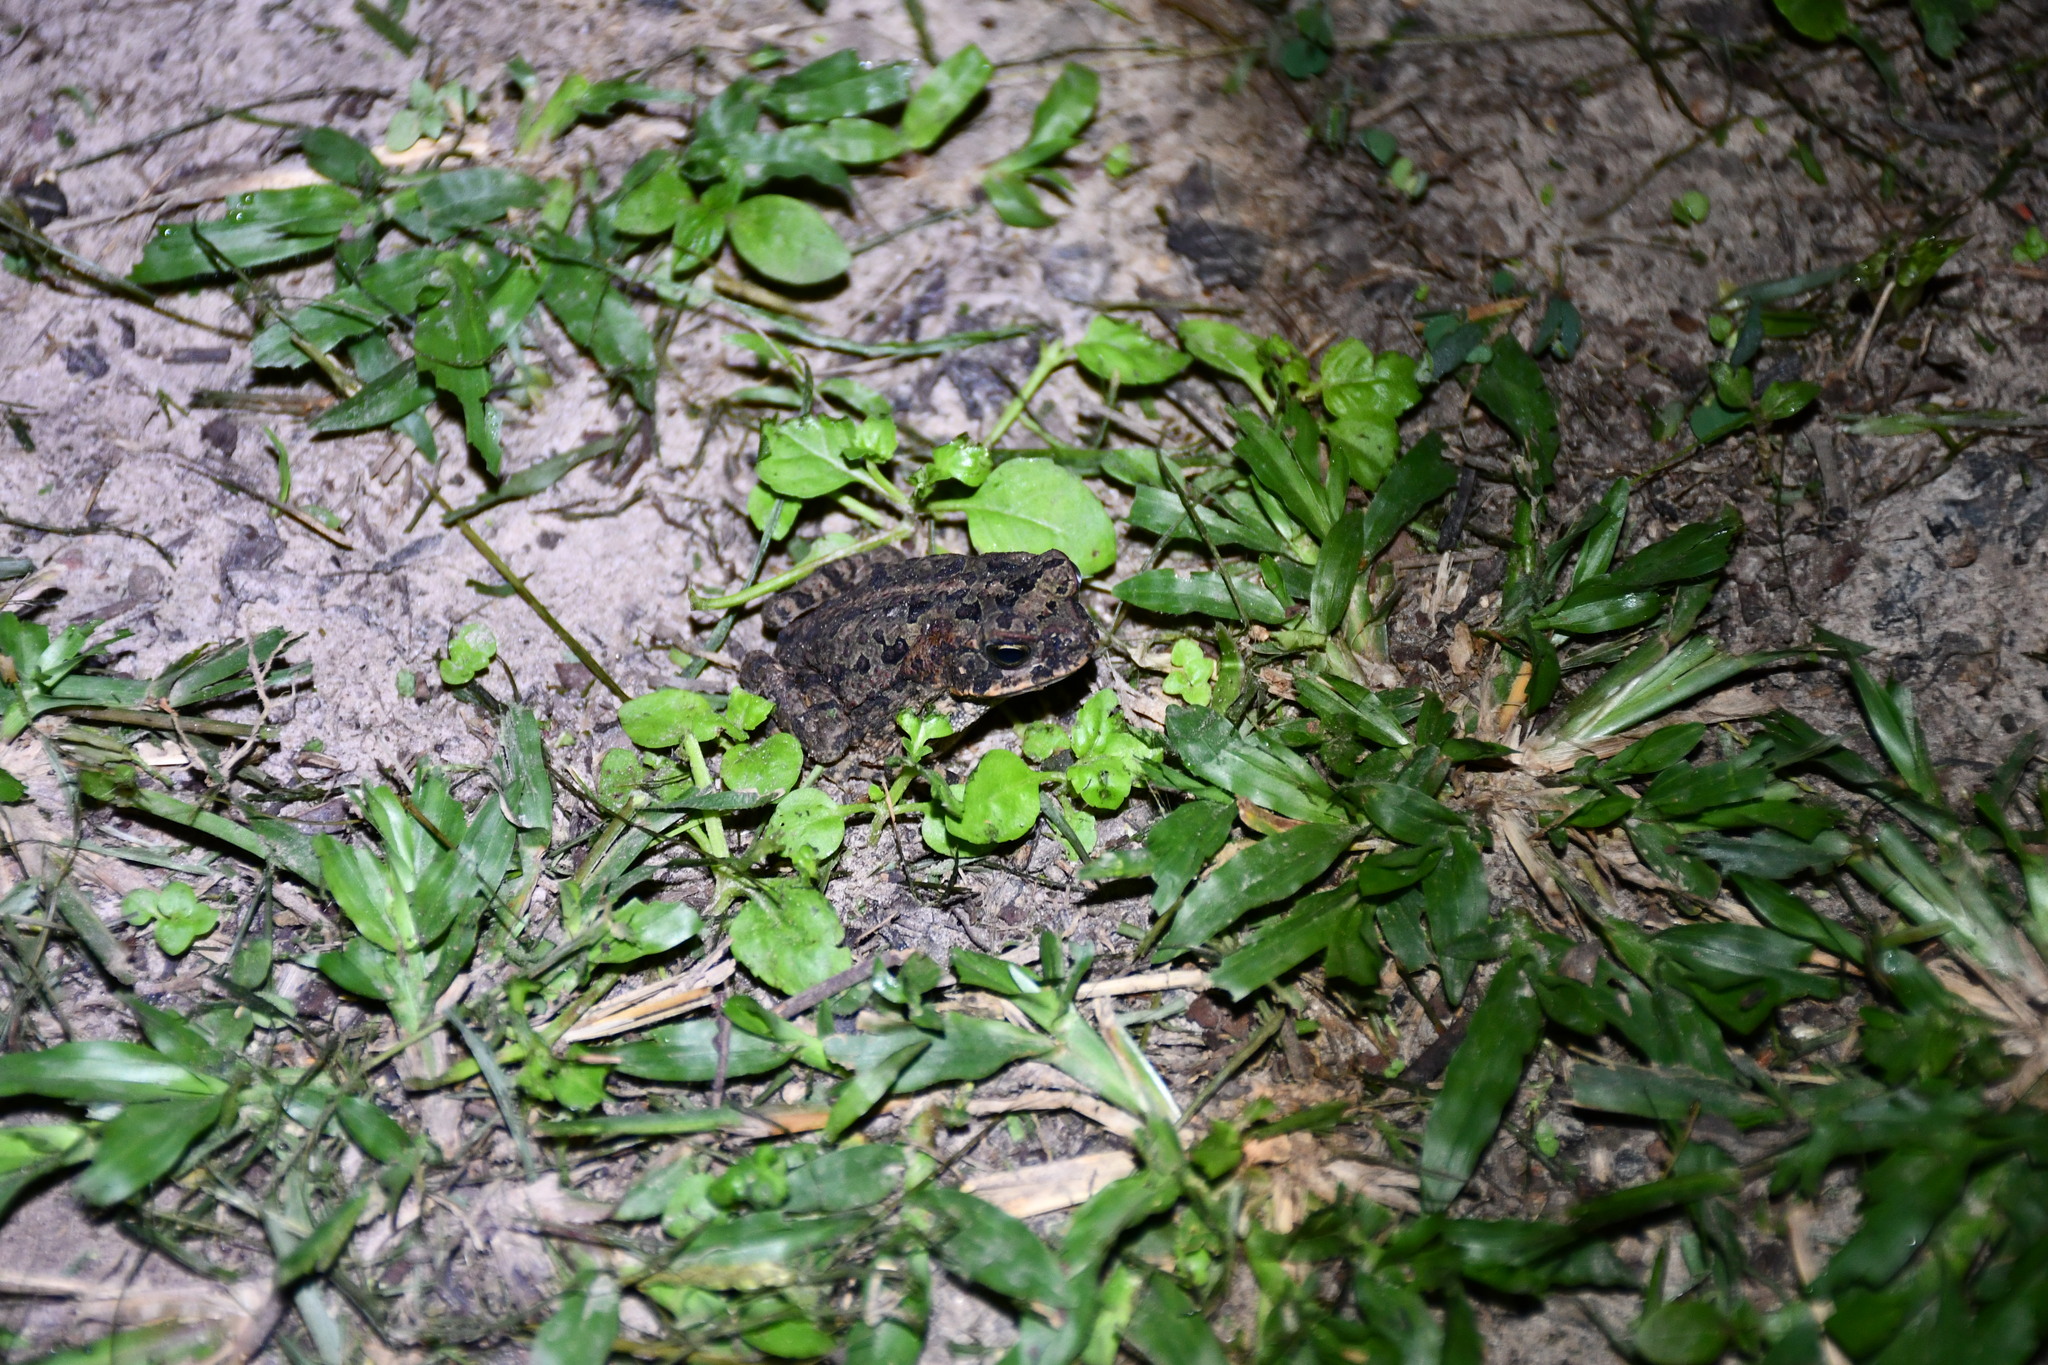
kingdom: Animalia
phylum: Chordata
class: Amphibia
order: Anura
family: Bufonidae
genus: Rhinella
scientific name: Rhinella marina
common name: Cane toad
